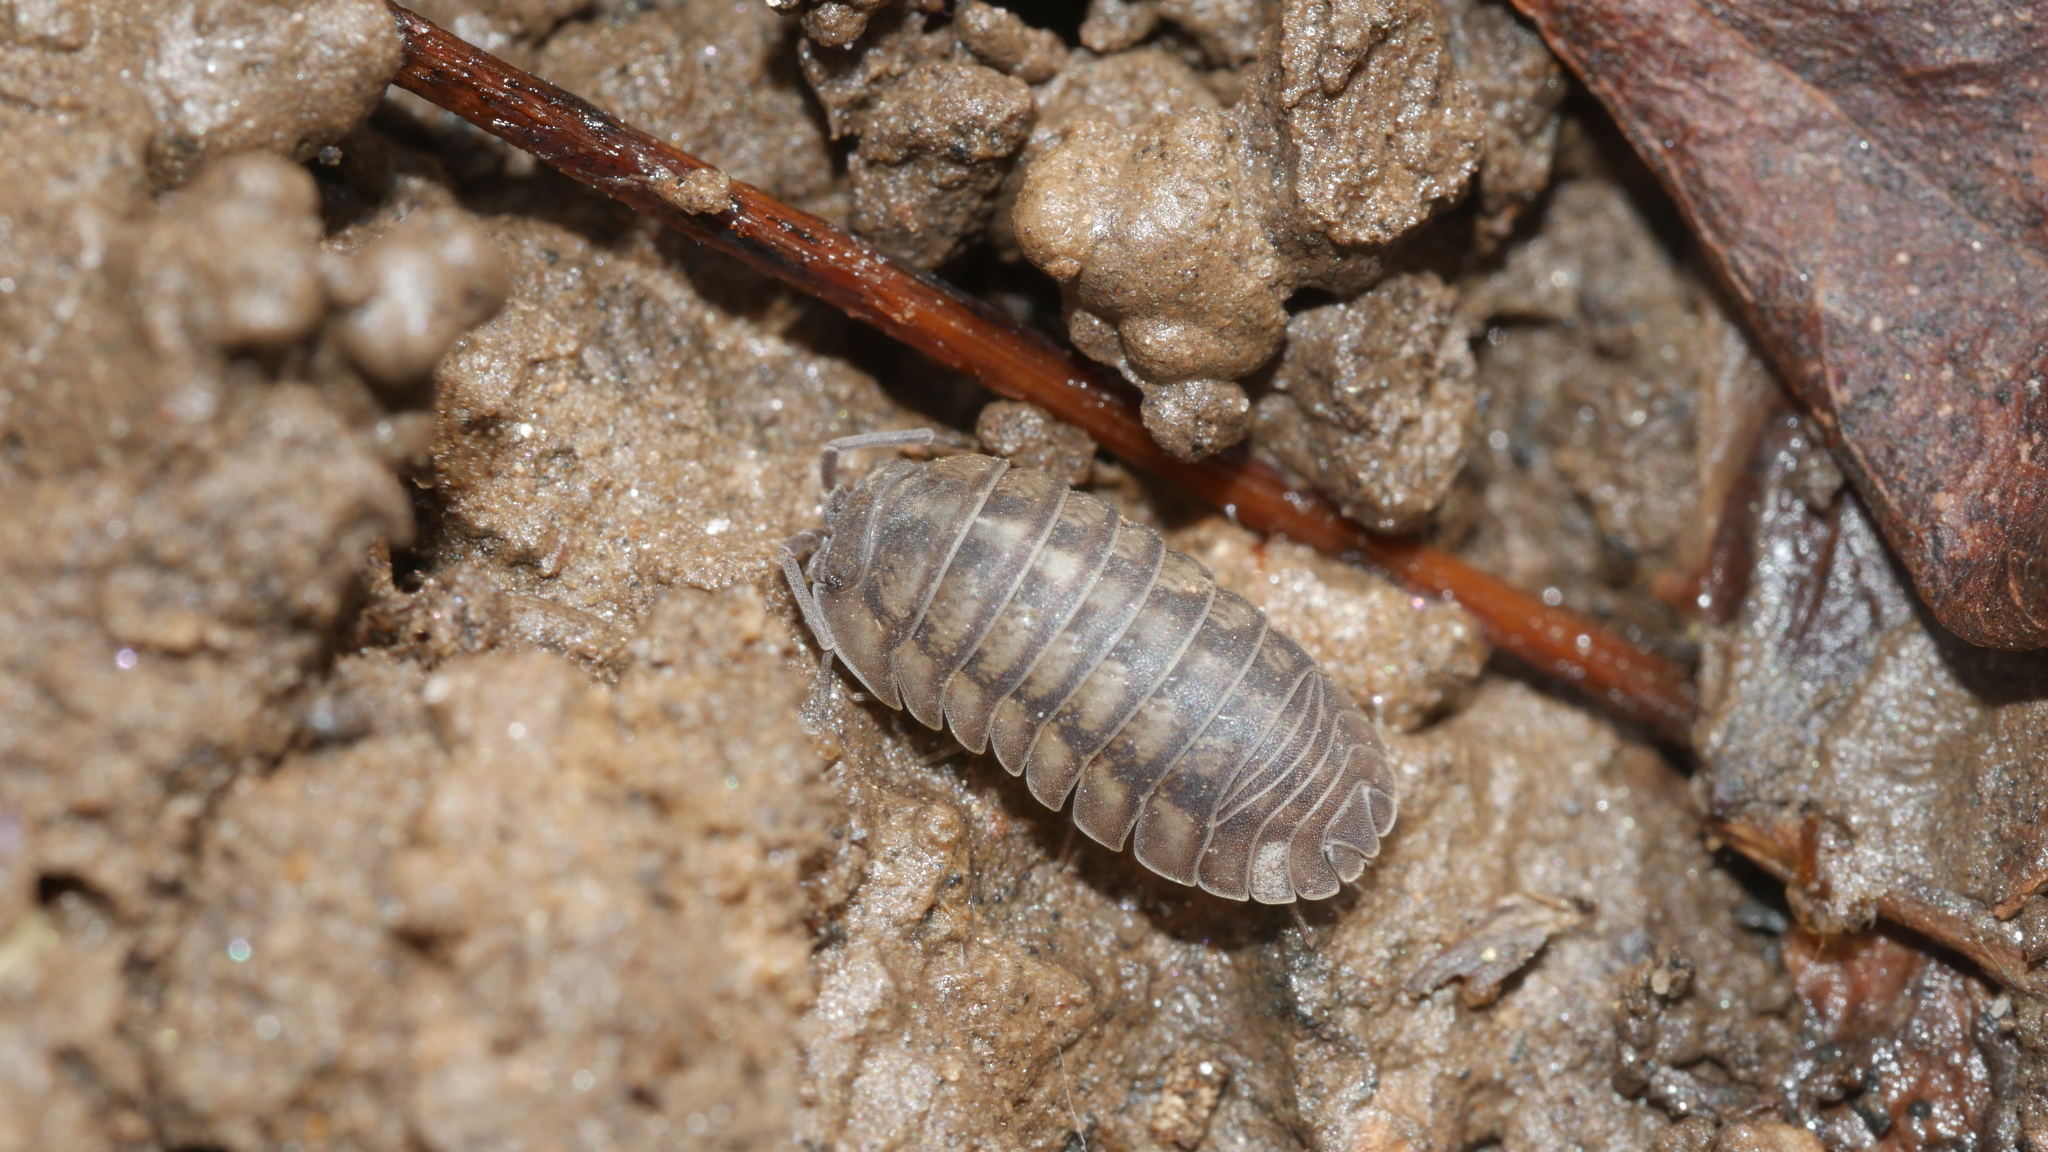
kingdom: Animalia
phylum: Arthropoda
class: Malacostraca
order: Isopoda
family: Armadillidiidae
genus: Armadillidium
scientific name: Armadillidium nasatum
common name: Isopod
